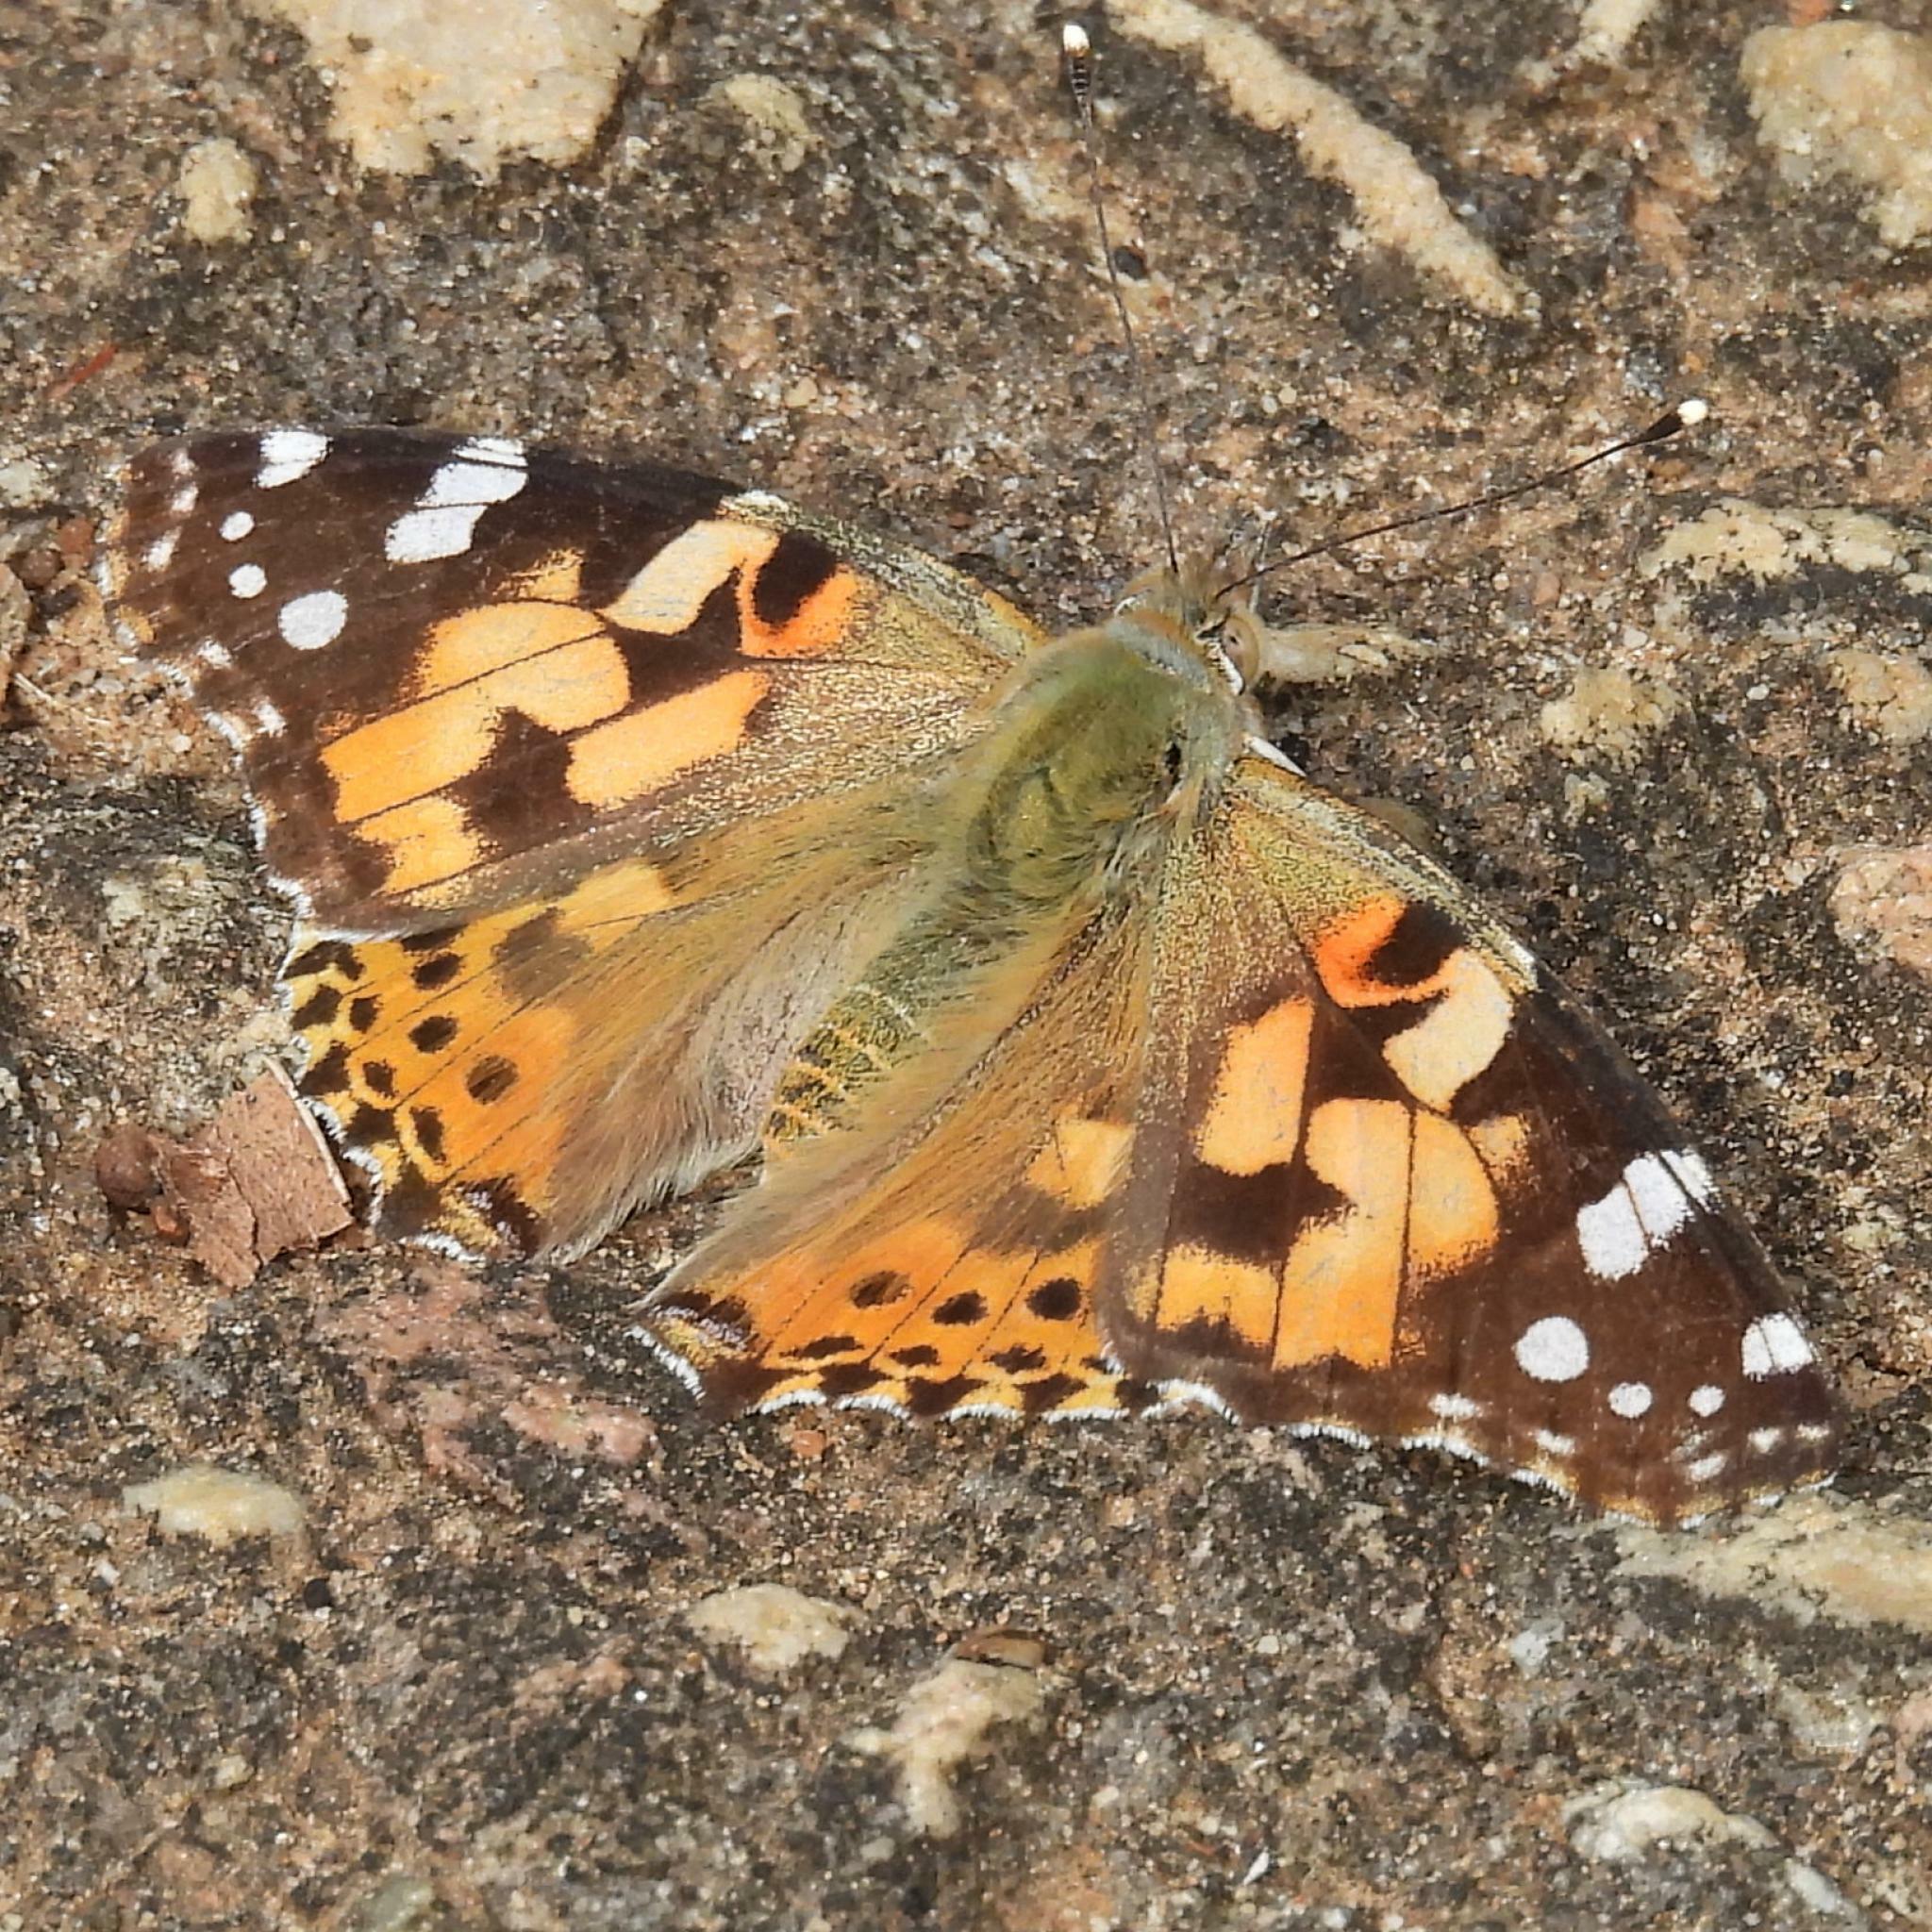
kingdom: Animalia
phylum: Arthropoda
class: Insecta
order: Lepidoptera
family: Nymphalidae
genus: Vanessa
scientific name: Vanessa cardui
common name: Painted lady
